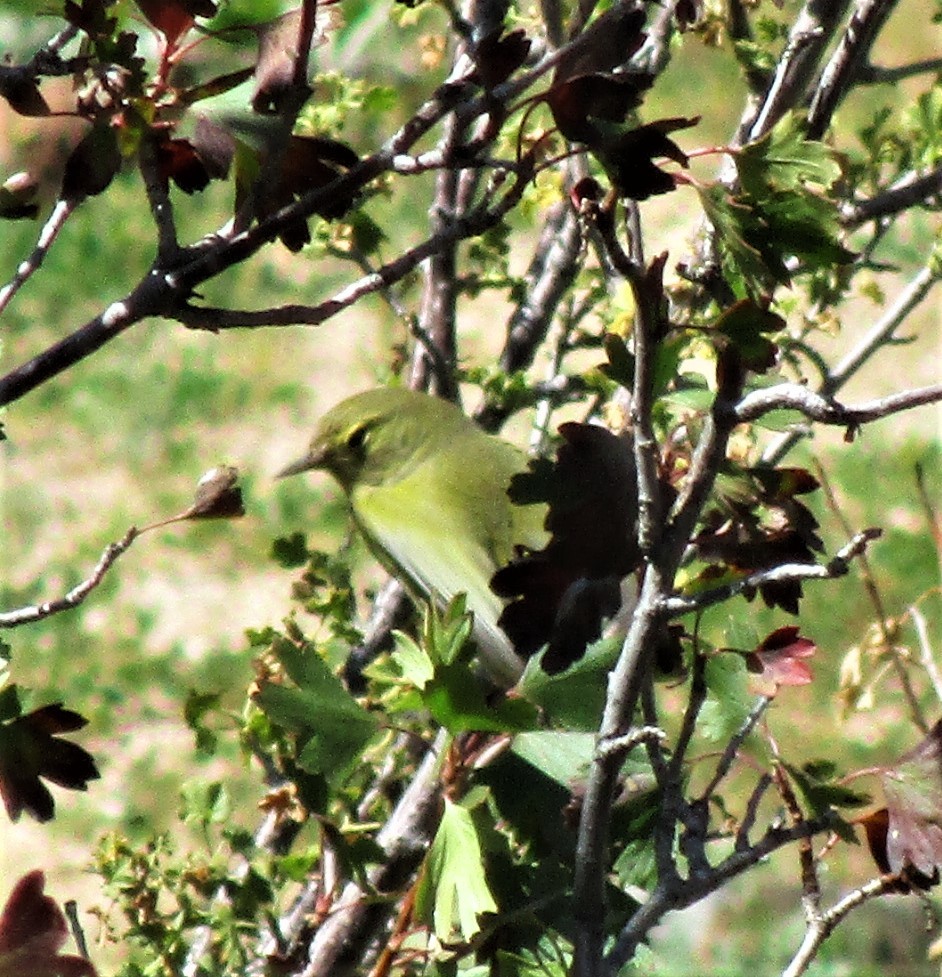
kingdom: Animalia
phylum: Chordata
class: Aves
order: Passeriformes
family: Parulidae
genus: Leiothlypis
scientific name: Leiothlypis celata
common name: Orange-crowned warbler
